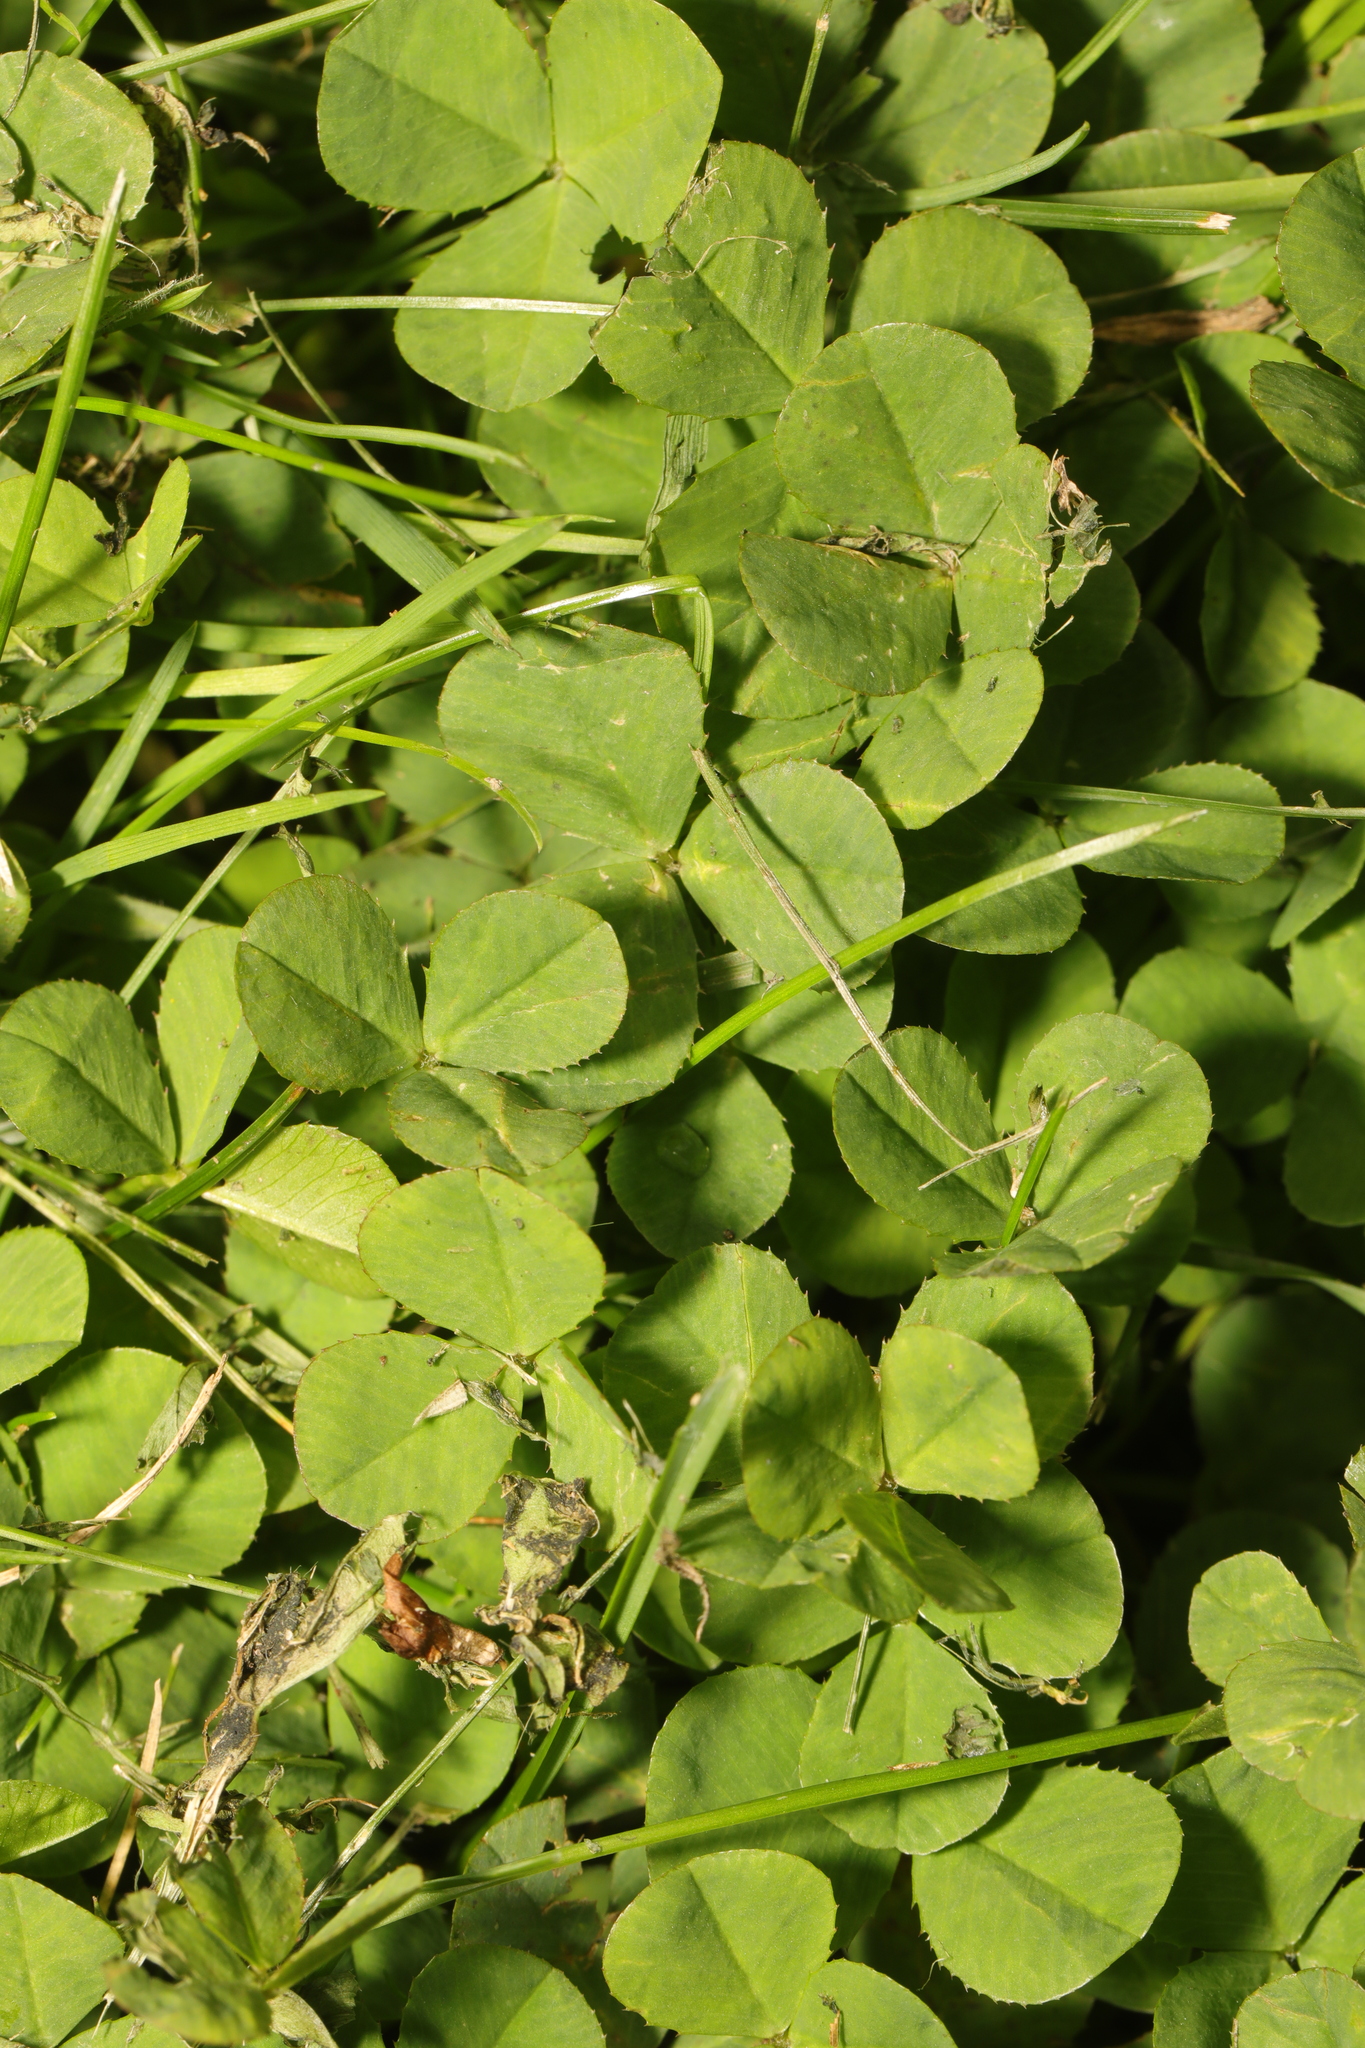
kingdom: Plantae
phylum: Tracheophyta
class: Magnoliopsida
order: Fabales
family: Fabaceae
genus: Trifolium
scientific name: Trifolium repens
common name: White clover
